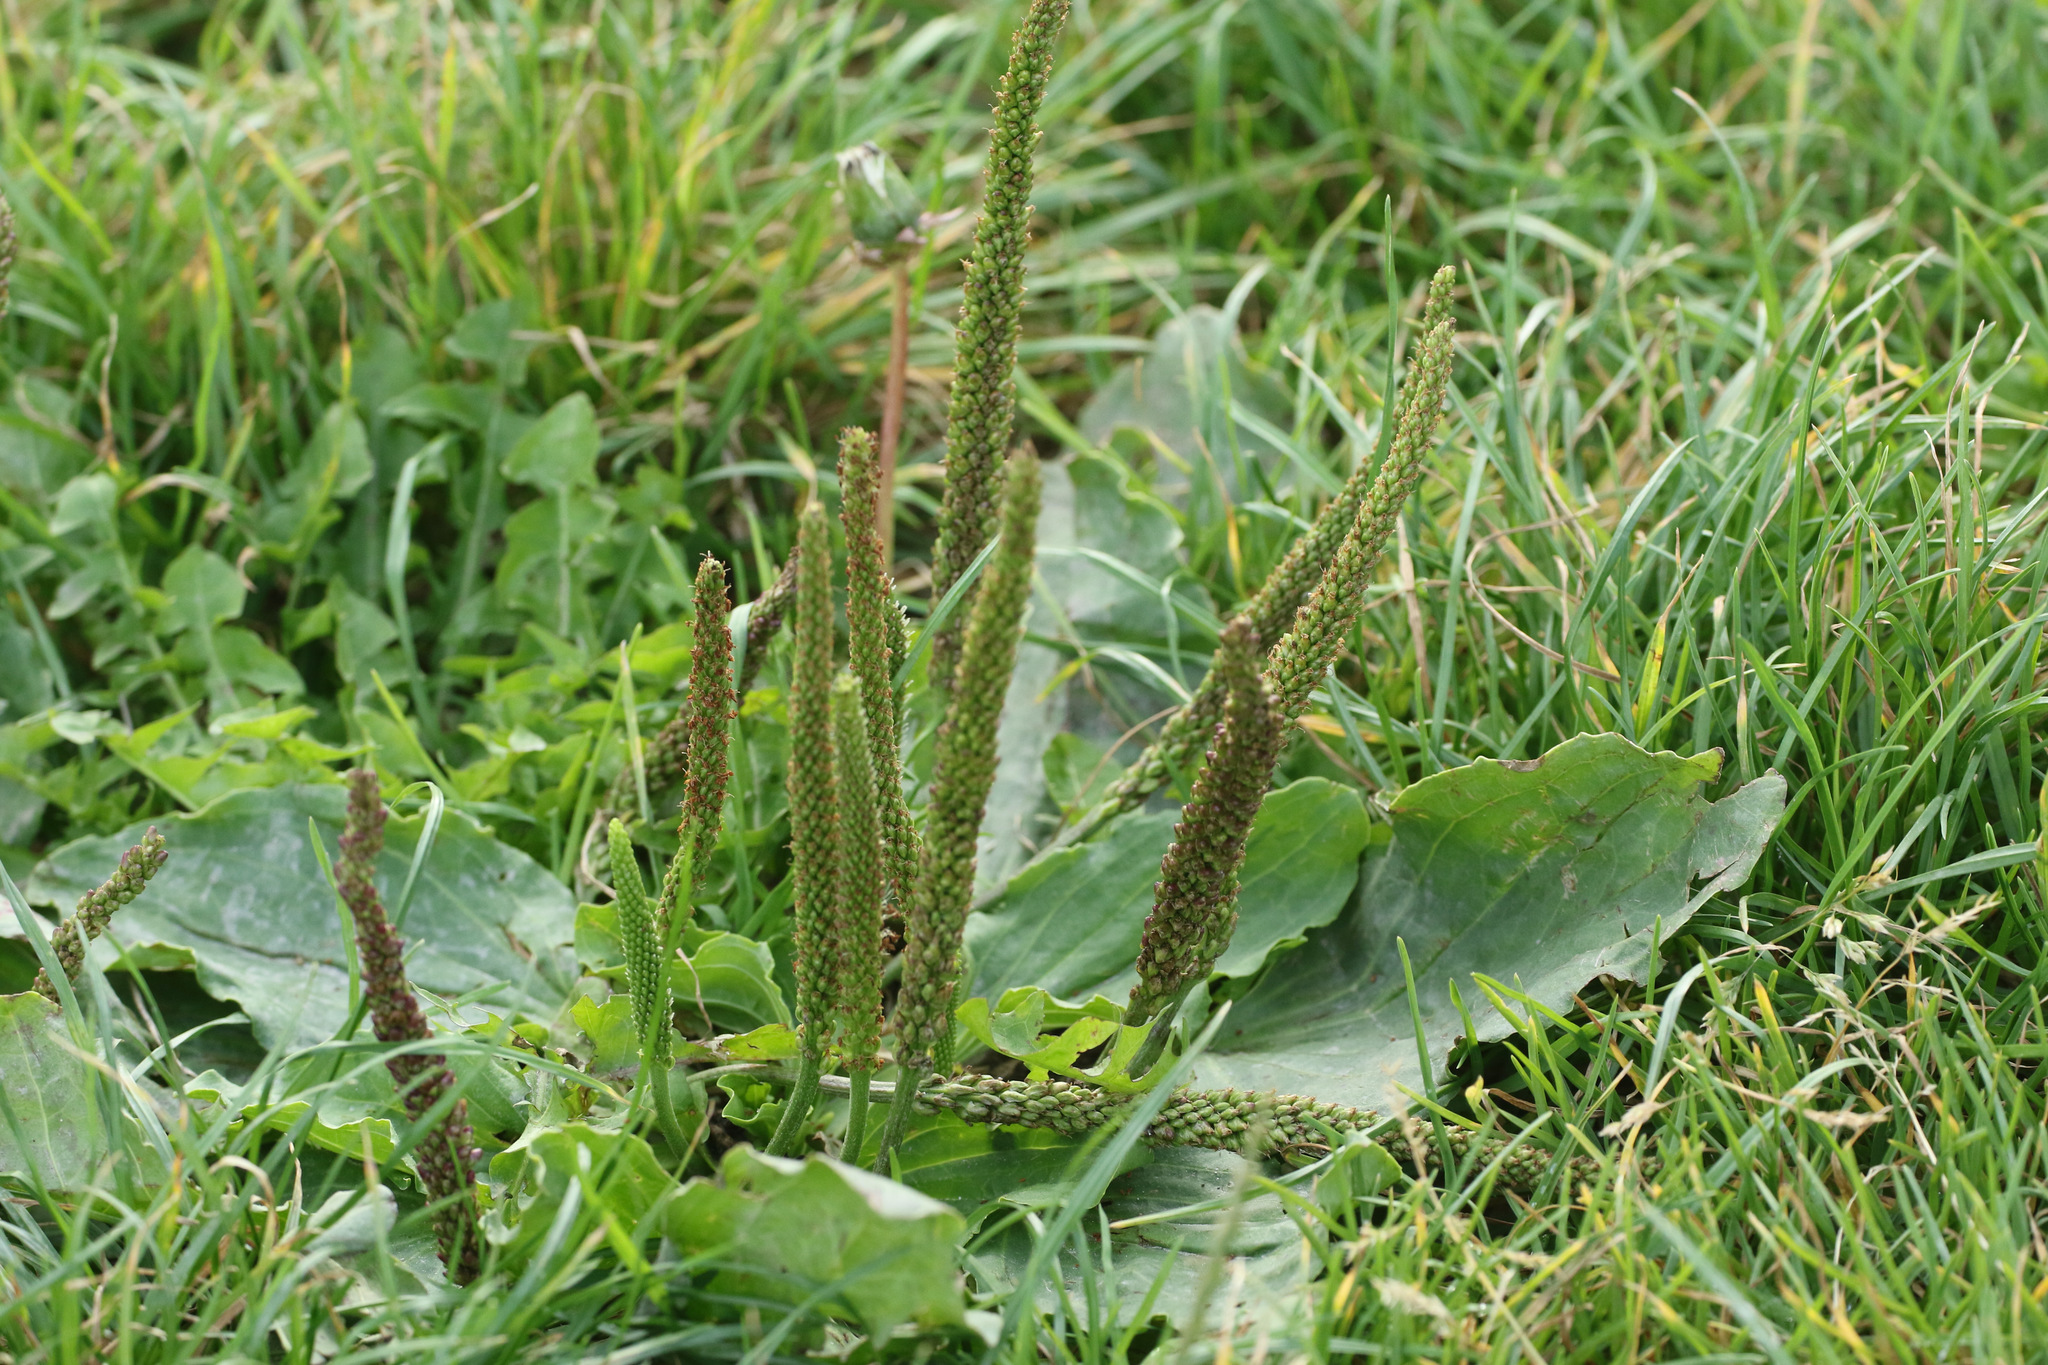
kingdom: Plantae
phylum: Tracheophyta
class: Magnoliopsida
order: Lamiales
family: Plantaginaceae
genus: Plantago
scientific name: Plantago major
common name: Common plantain
